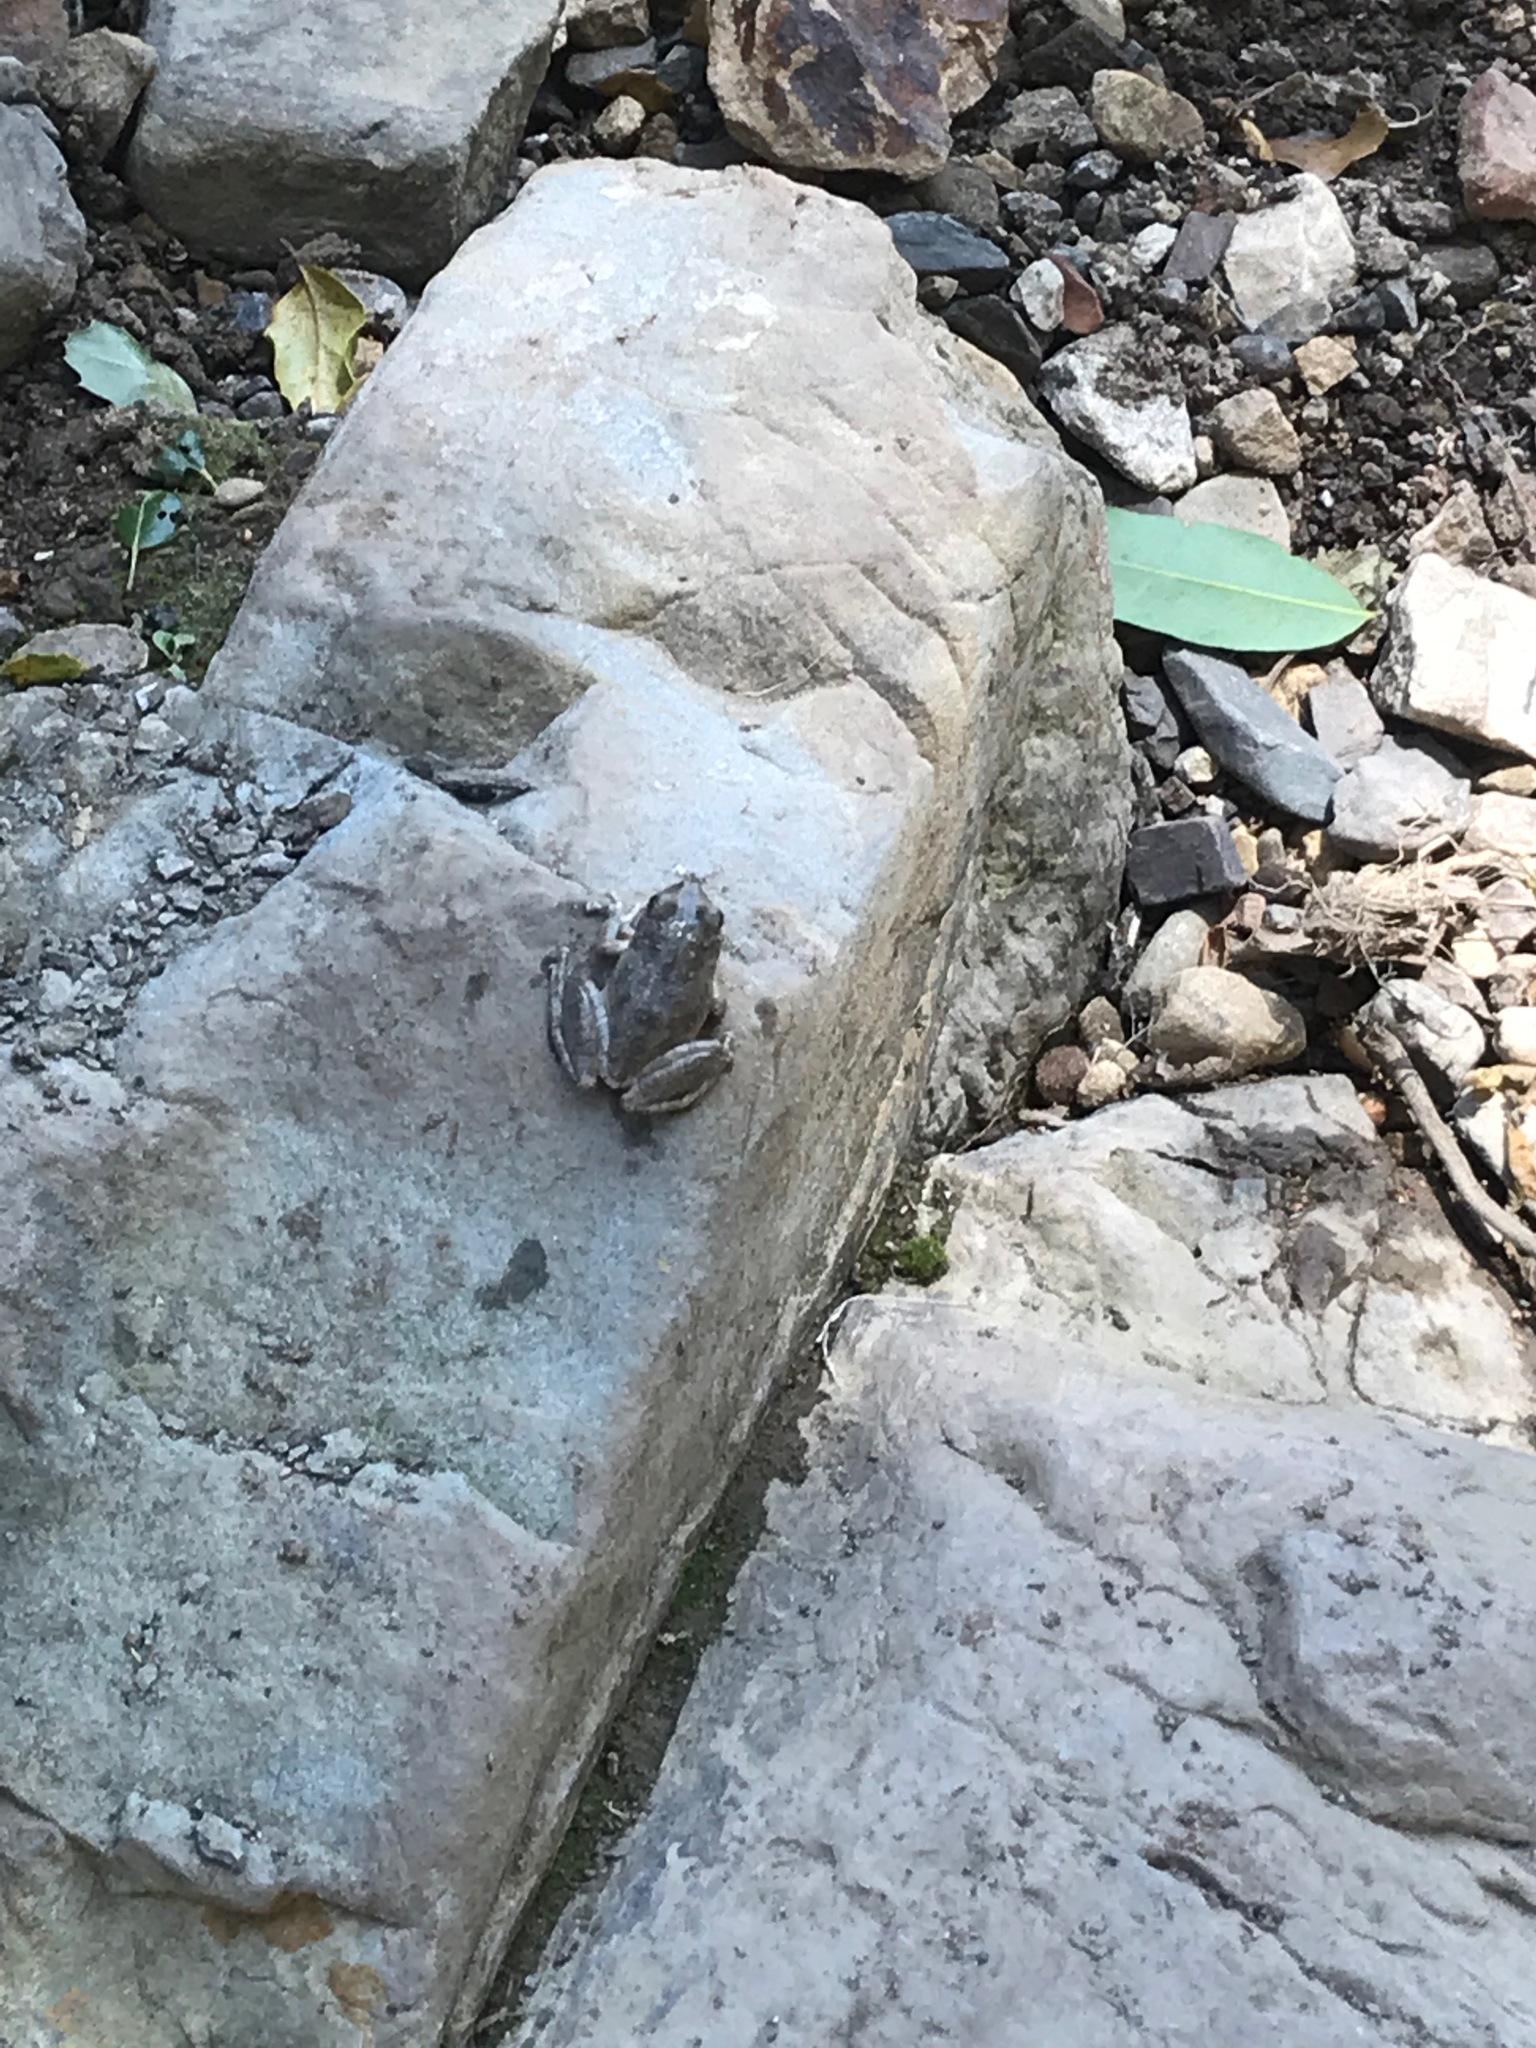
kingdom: Animalia
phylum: Chordata
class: Amphibia
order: Anura
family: Hylidae
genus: Pseudacris
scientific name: Pseudacris cadaverina
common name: California chorus frog
